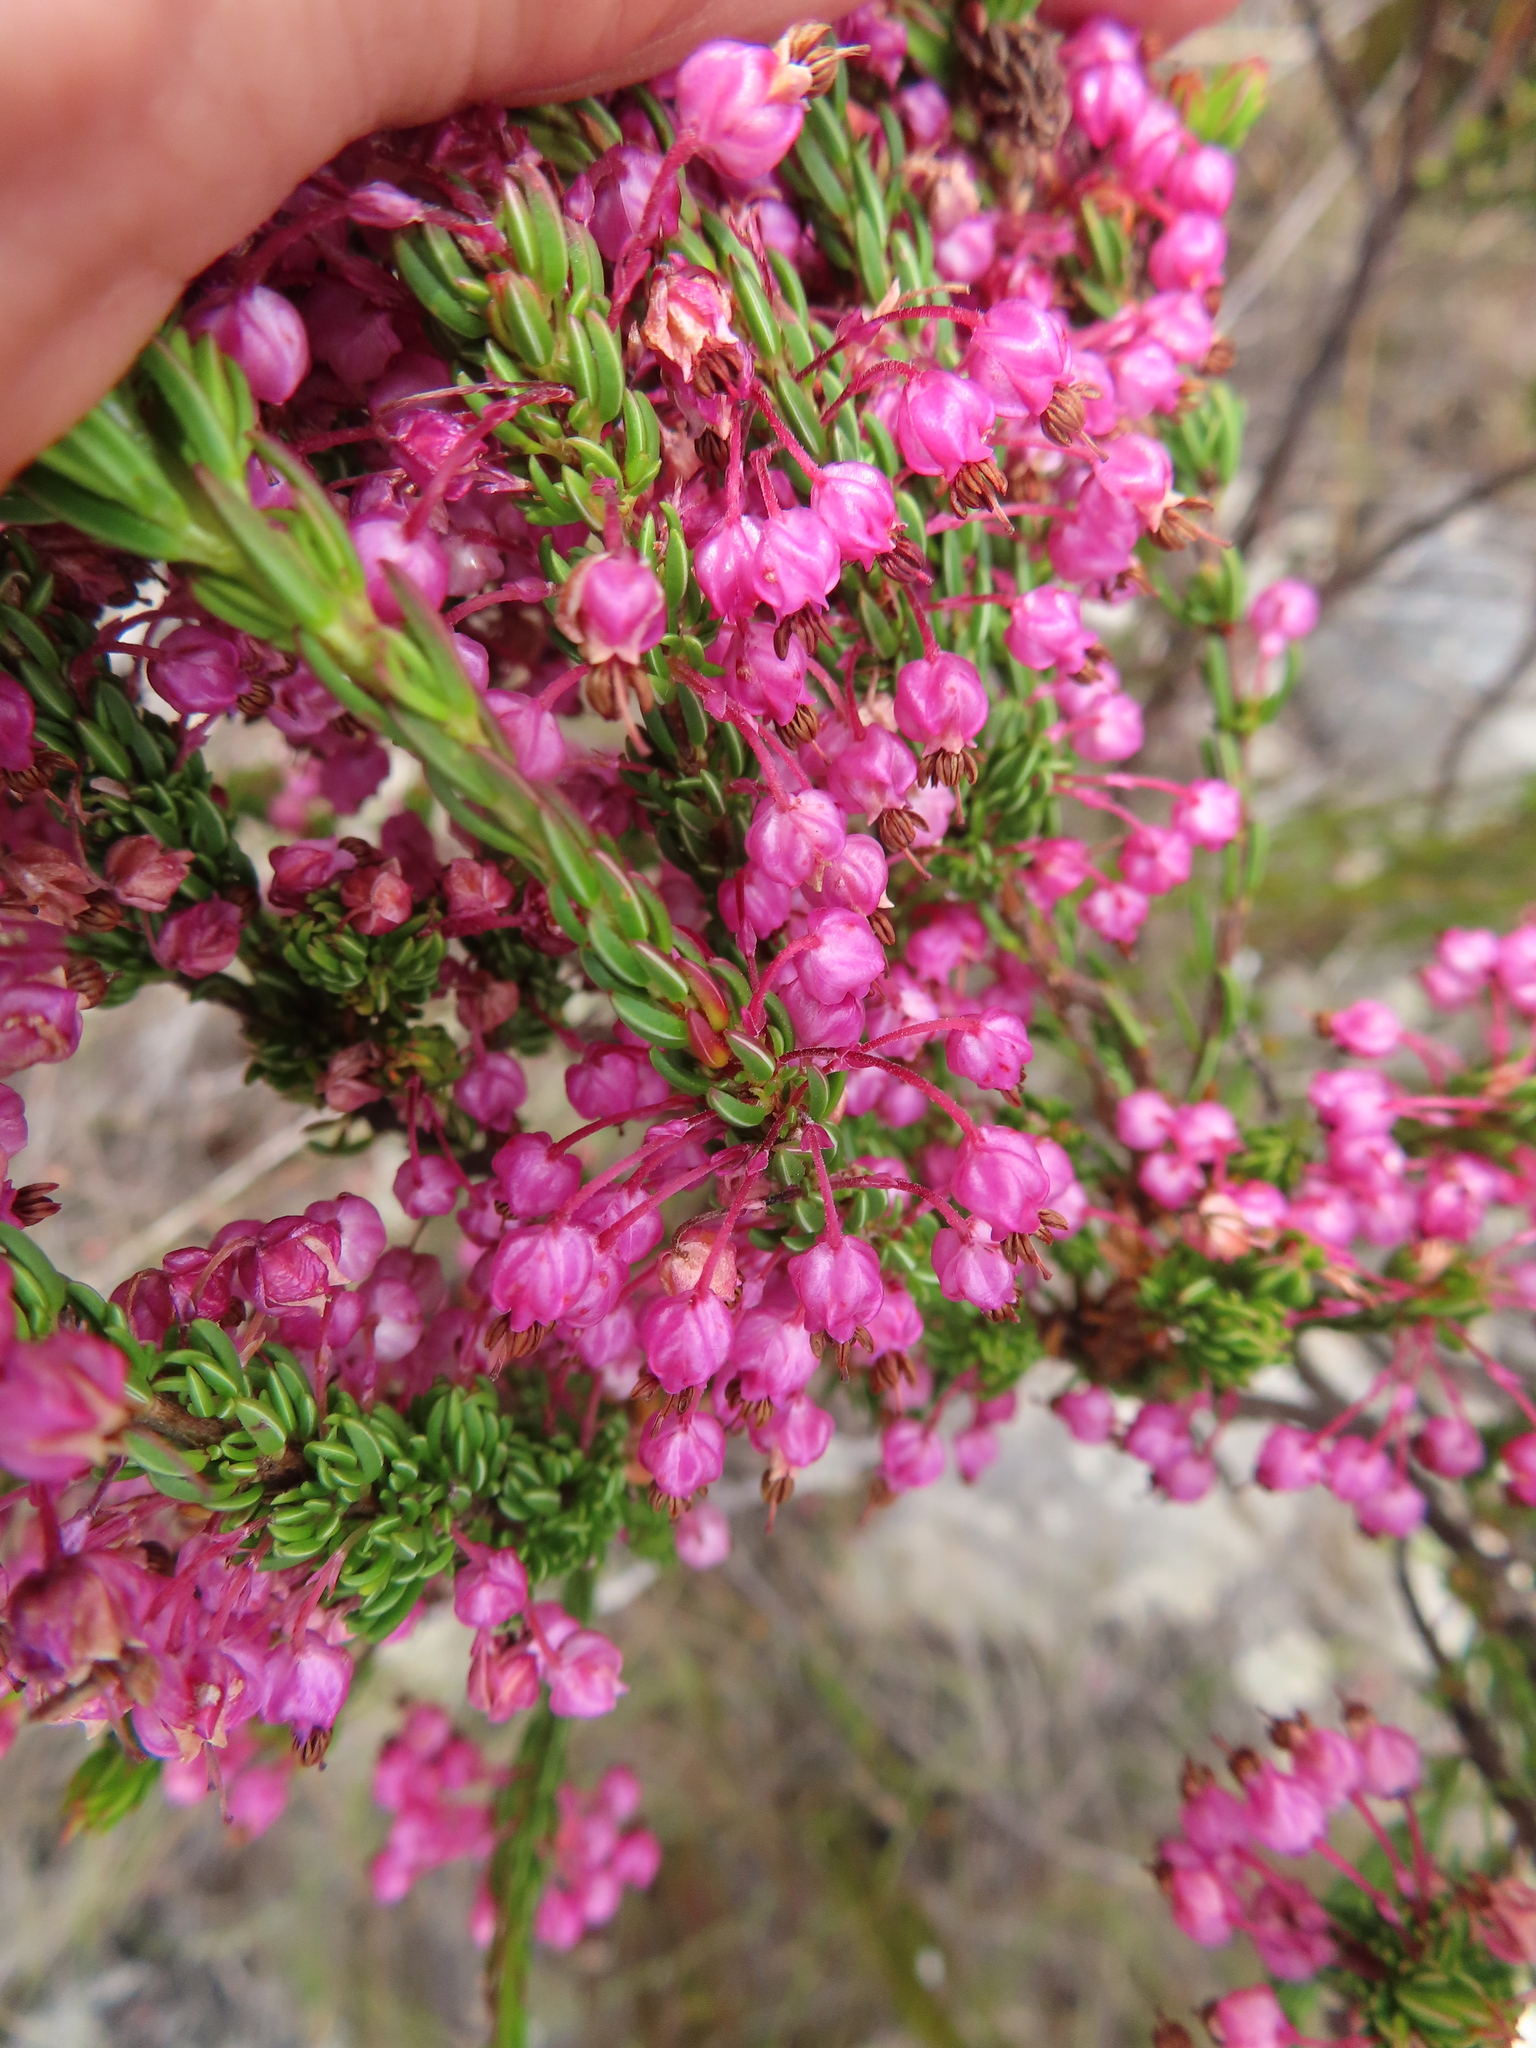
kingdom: Plantae
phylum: Tracheophyta
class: Magnoliopsida
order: Ericales
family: Ericaceae
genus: Erica
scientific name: Erica gracilipes
